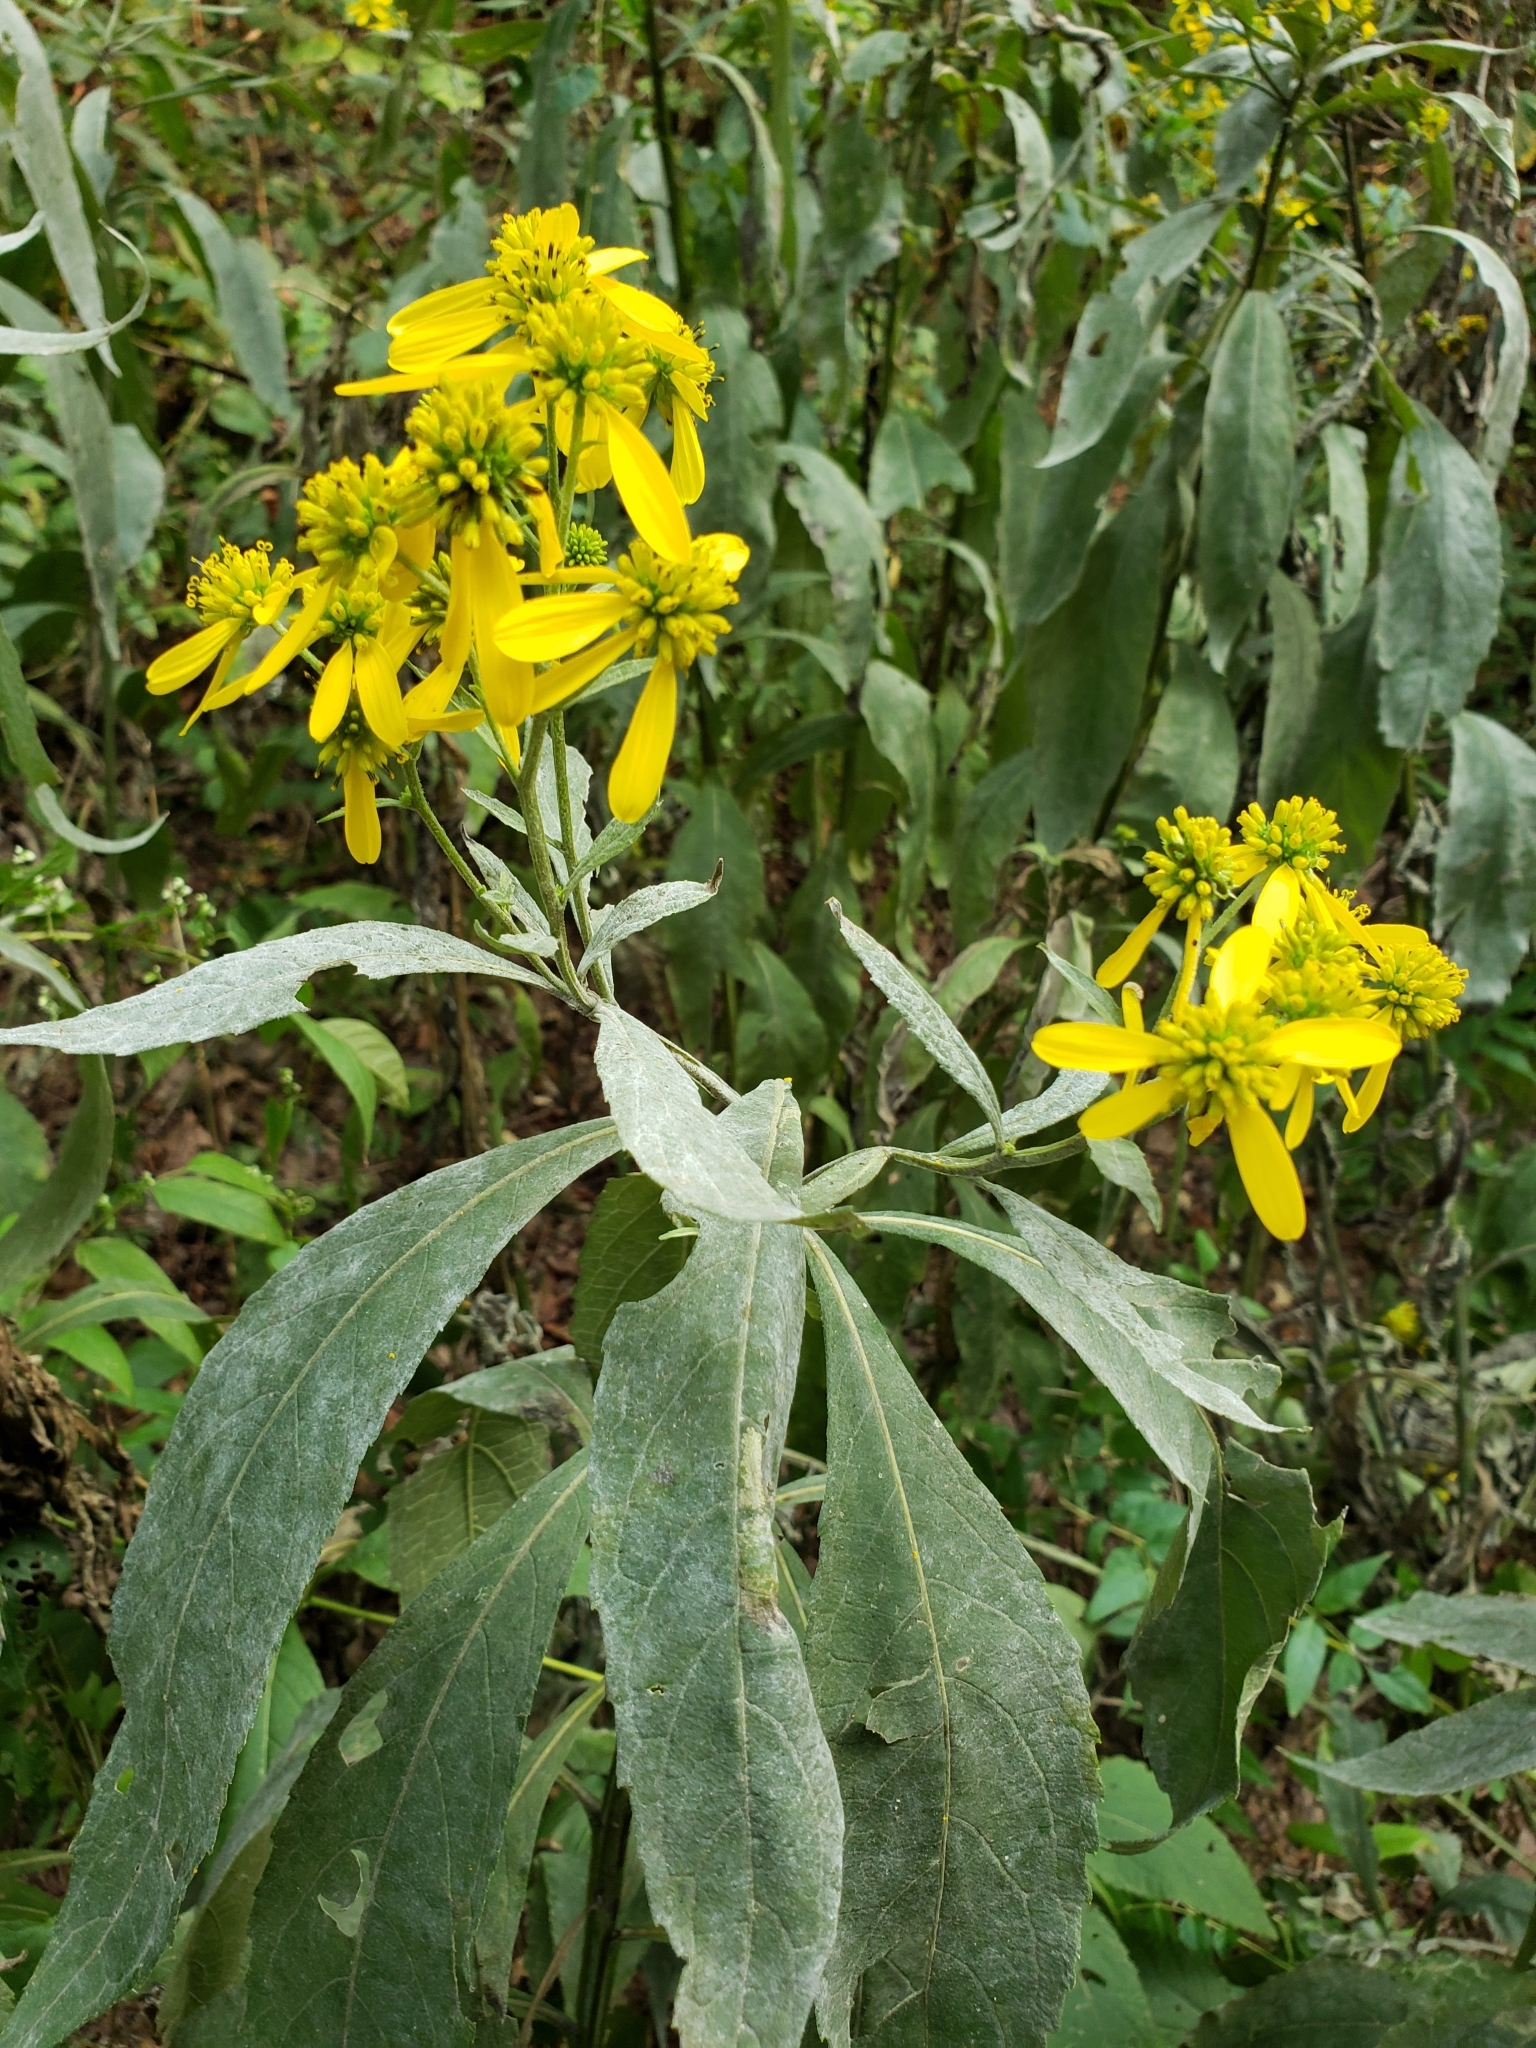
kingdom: Plantae
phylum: Tracheophyta
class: Magnoliopsida
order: Asterales
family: Asteraceae
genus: Verbesina
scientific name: Verbesina alternifolia
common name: Wingstem
